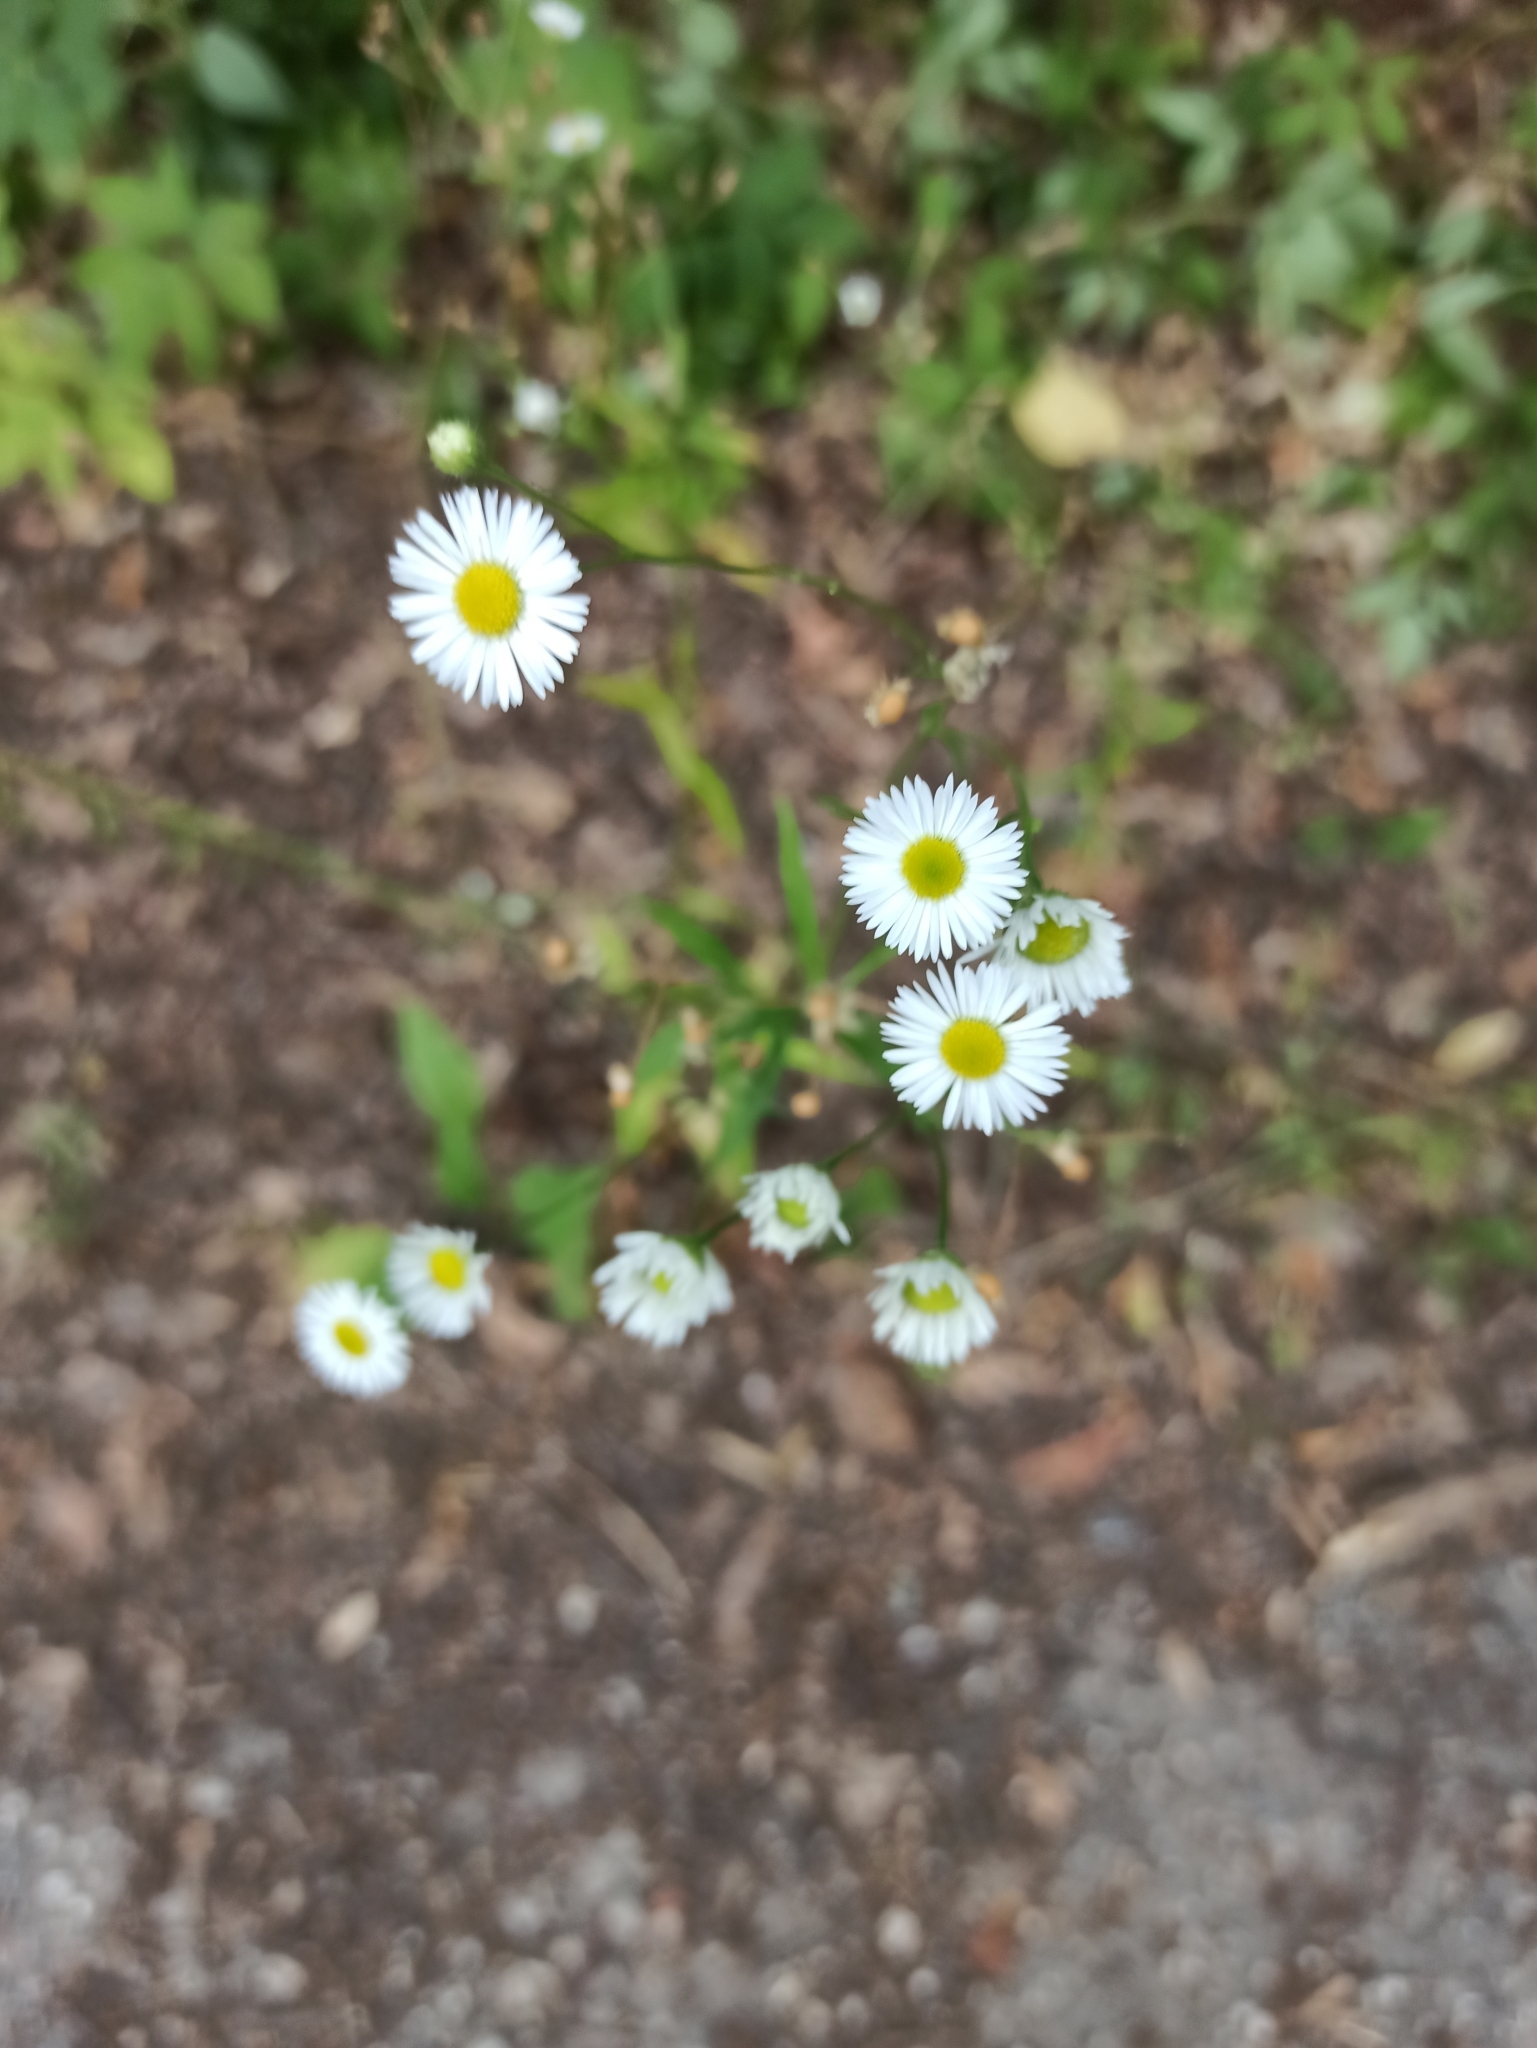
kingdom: Plantae
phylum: Tracheophyta
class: Magnoliopsida
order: Asterales
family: Asteraceae
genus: Erigeron
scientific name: Erigeron strigosus
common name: Common eastern fleabane
